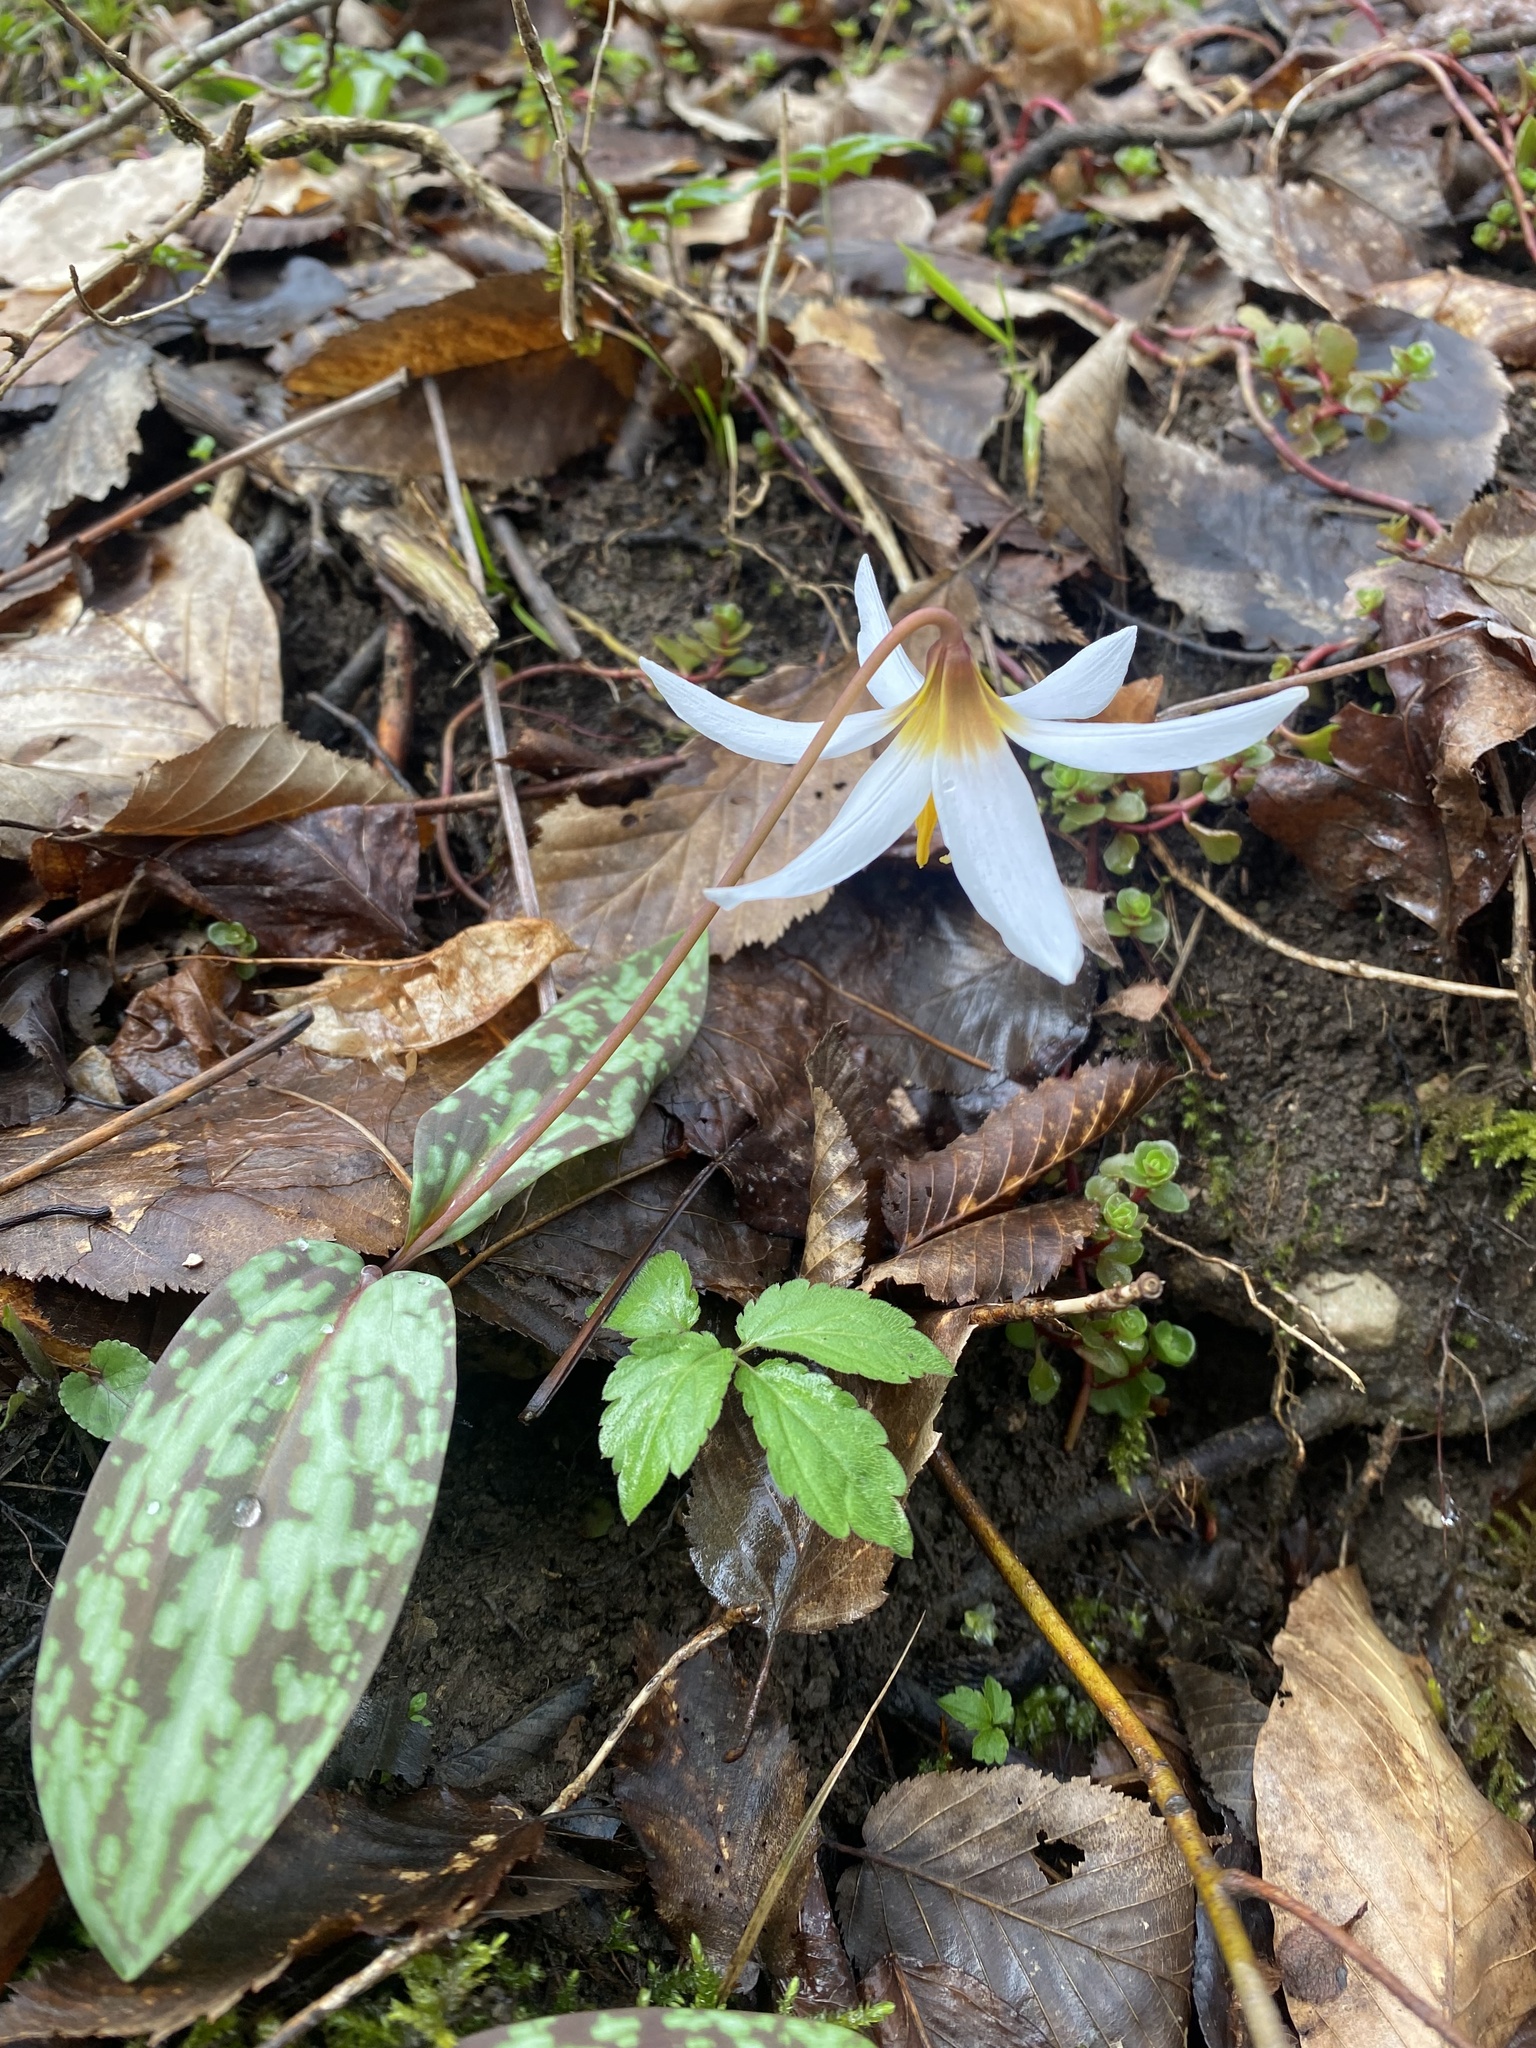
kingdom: Plantae
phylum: Tracheophyta
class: Liliopsida
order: Liliales
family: Liliaceae
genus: Erythronium
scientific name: Erythronium caucasicum
